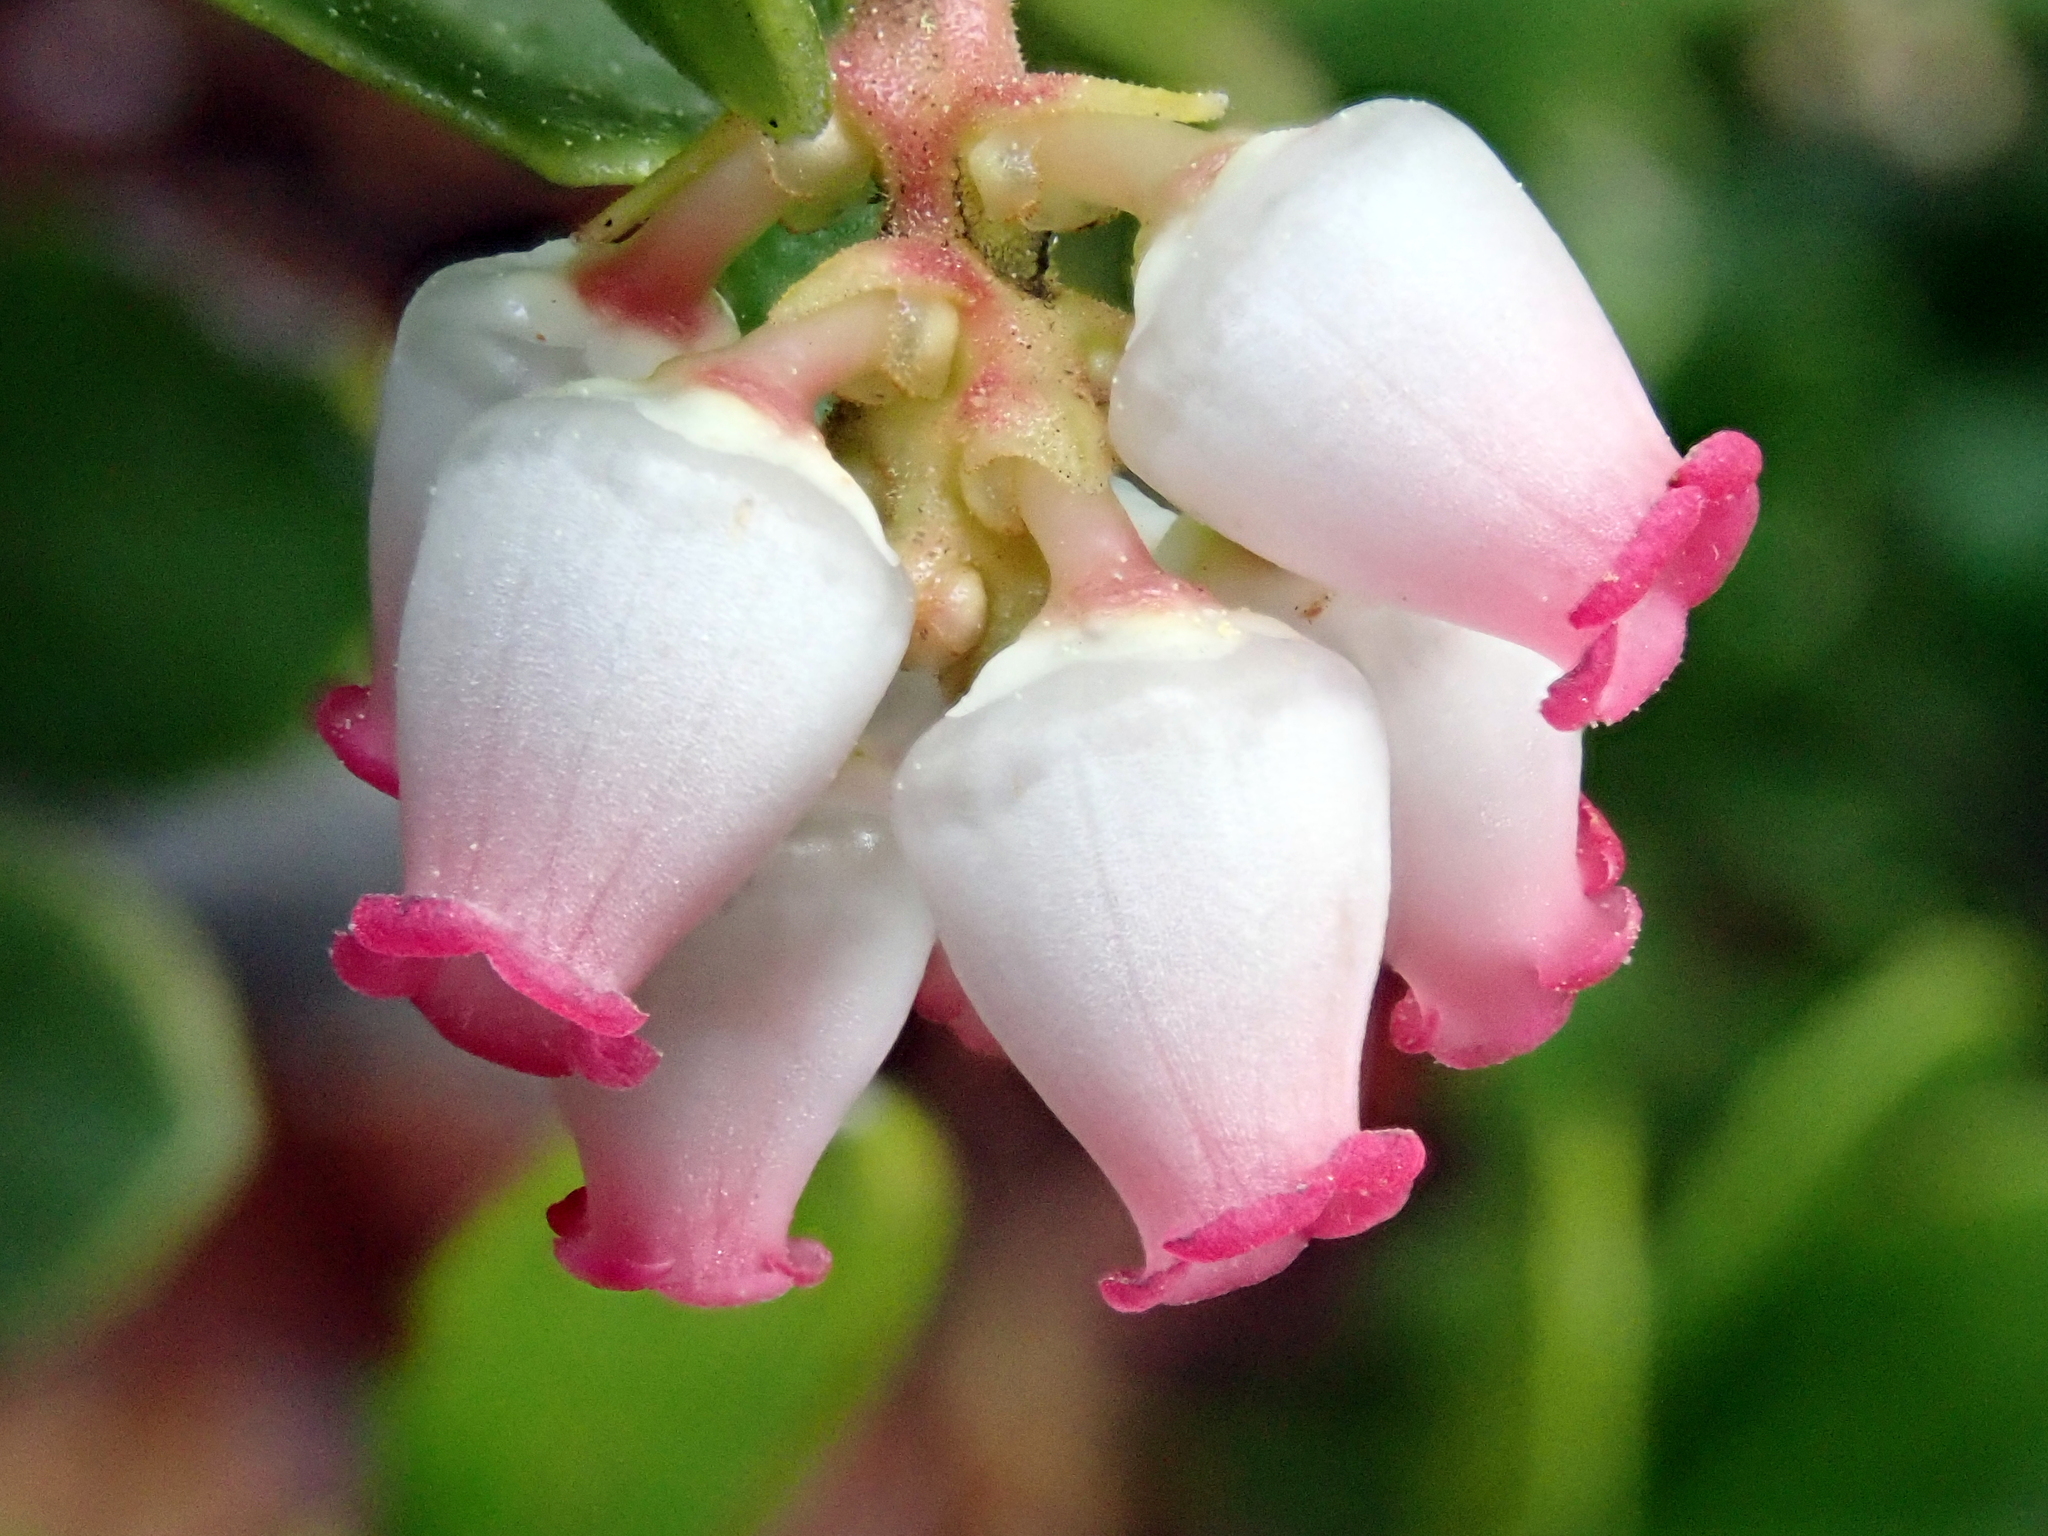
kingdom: Plantae
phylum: Tracheophyta
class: Magnoliopsida
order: Ericales
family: Ericaceae
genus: Arctostaphylos
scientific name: Arctostaphylos uva-ursi
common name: Bearberry
